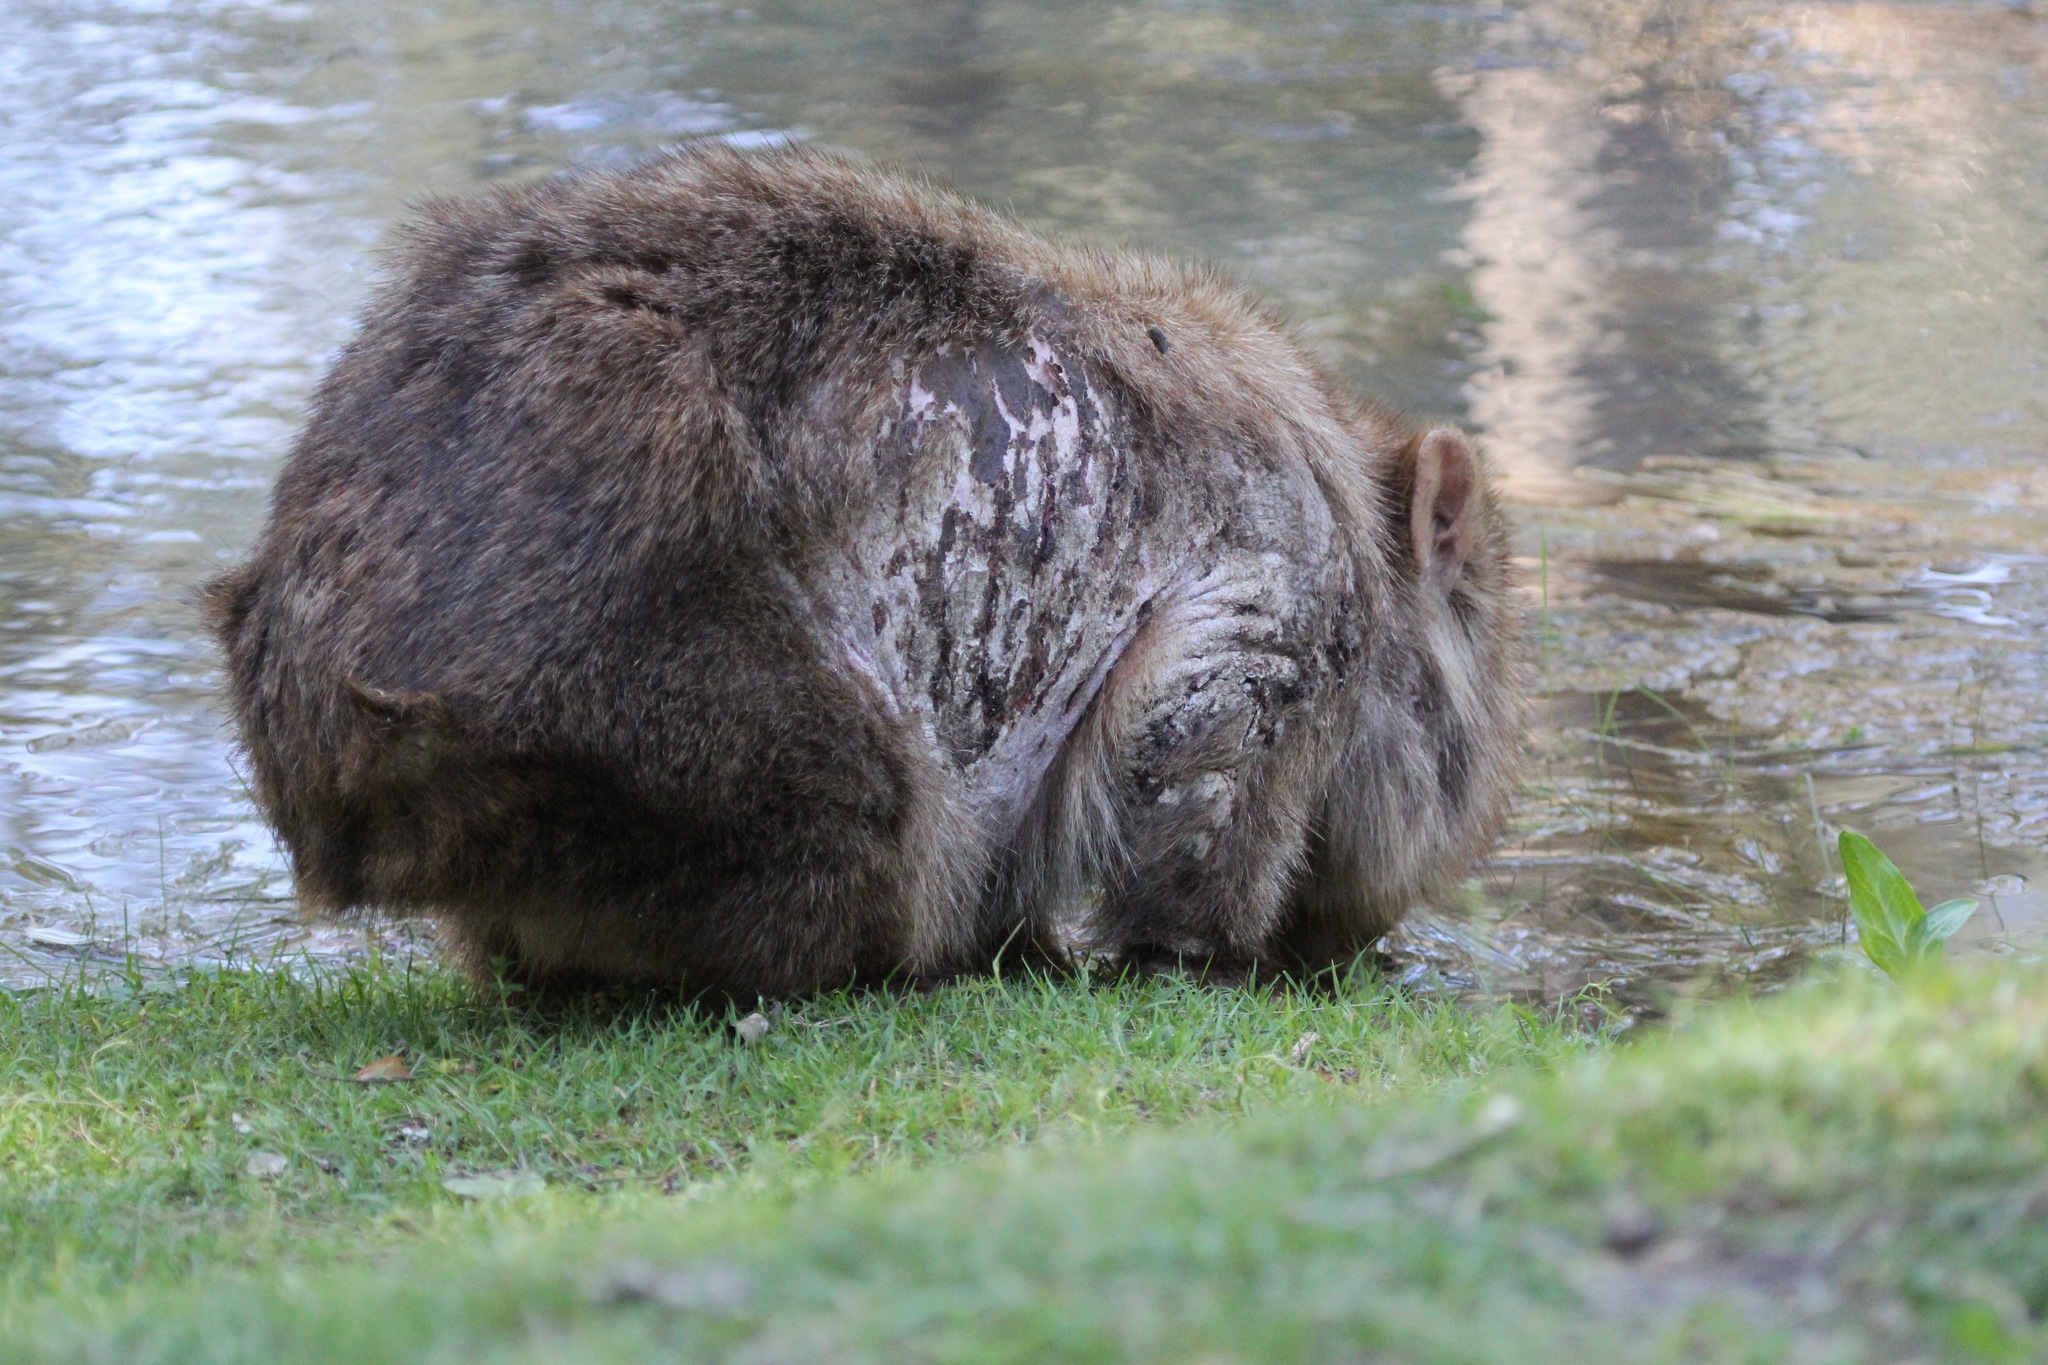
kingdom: Animalia
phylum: Chordata
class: Mammalia
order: Diprotodontia
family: Vombatidae
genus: Vombatus
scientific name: Vombatus ursinus
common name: Common wombat
